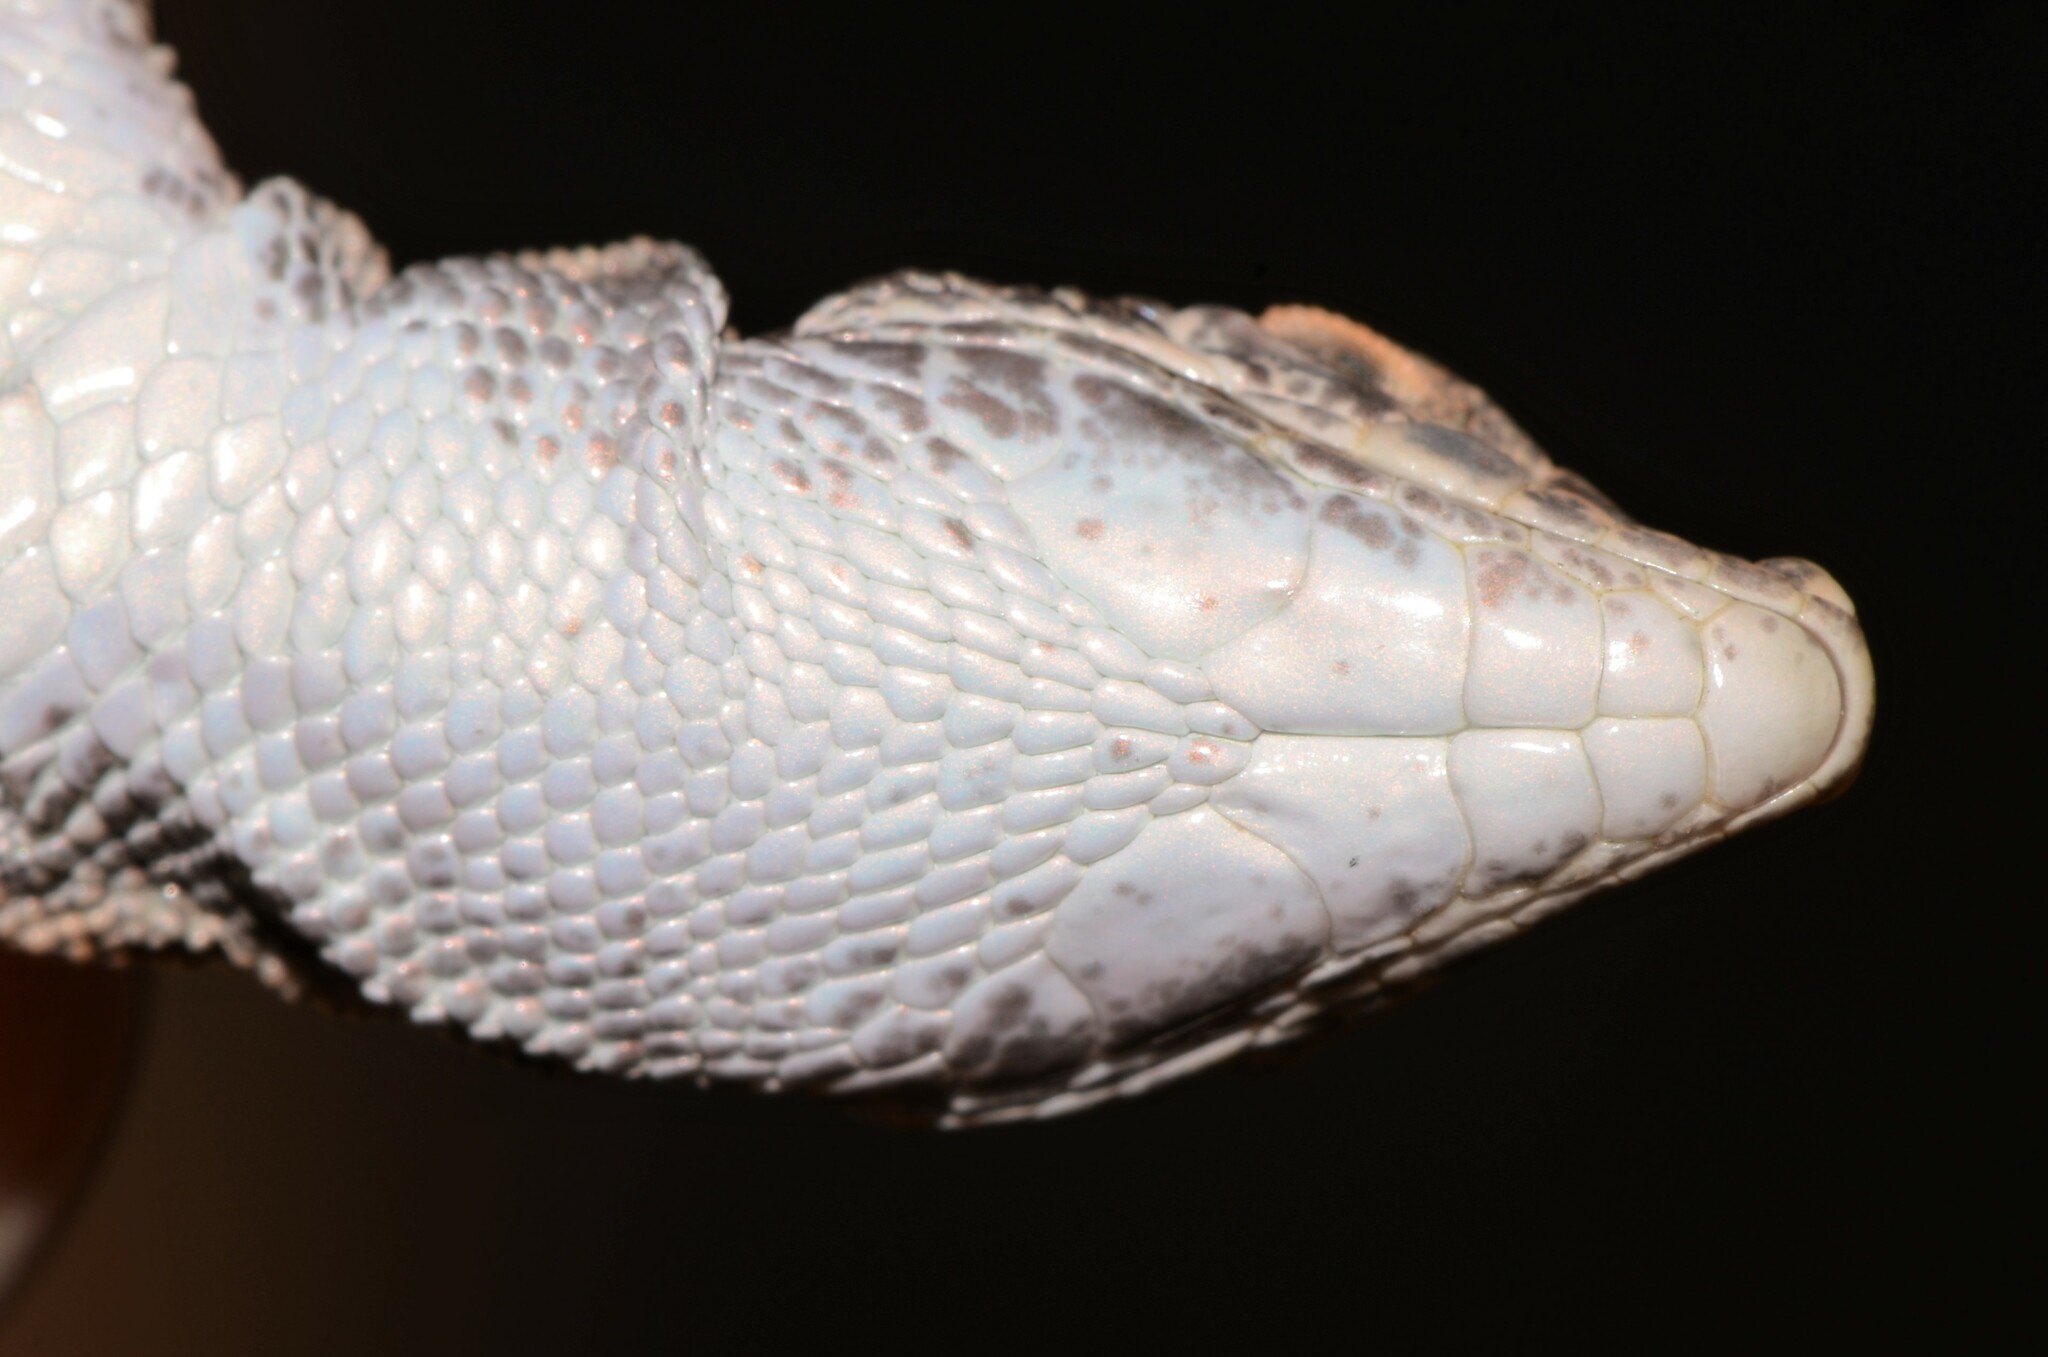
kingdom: Animalia
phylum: Chordata
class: Squamata
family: Lacertidae
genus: Mesalina
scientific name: Mesalina brevirostris
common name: Blanford's short-nosed desert lizard
